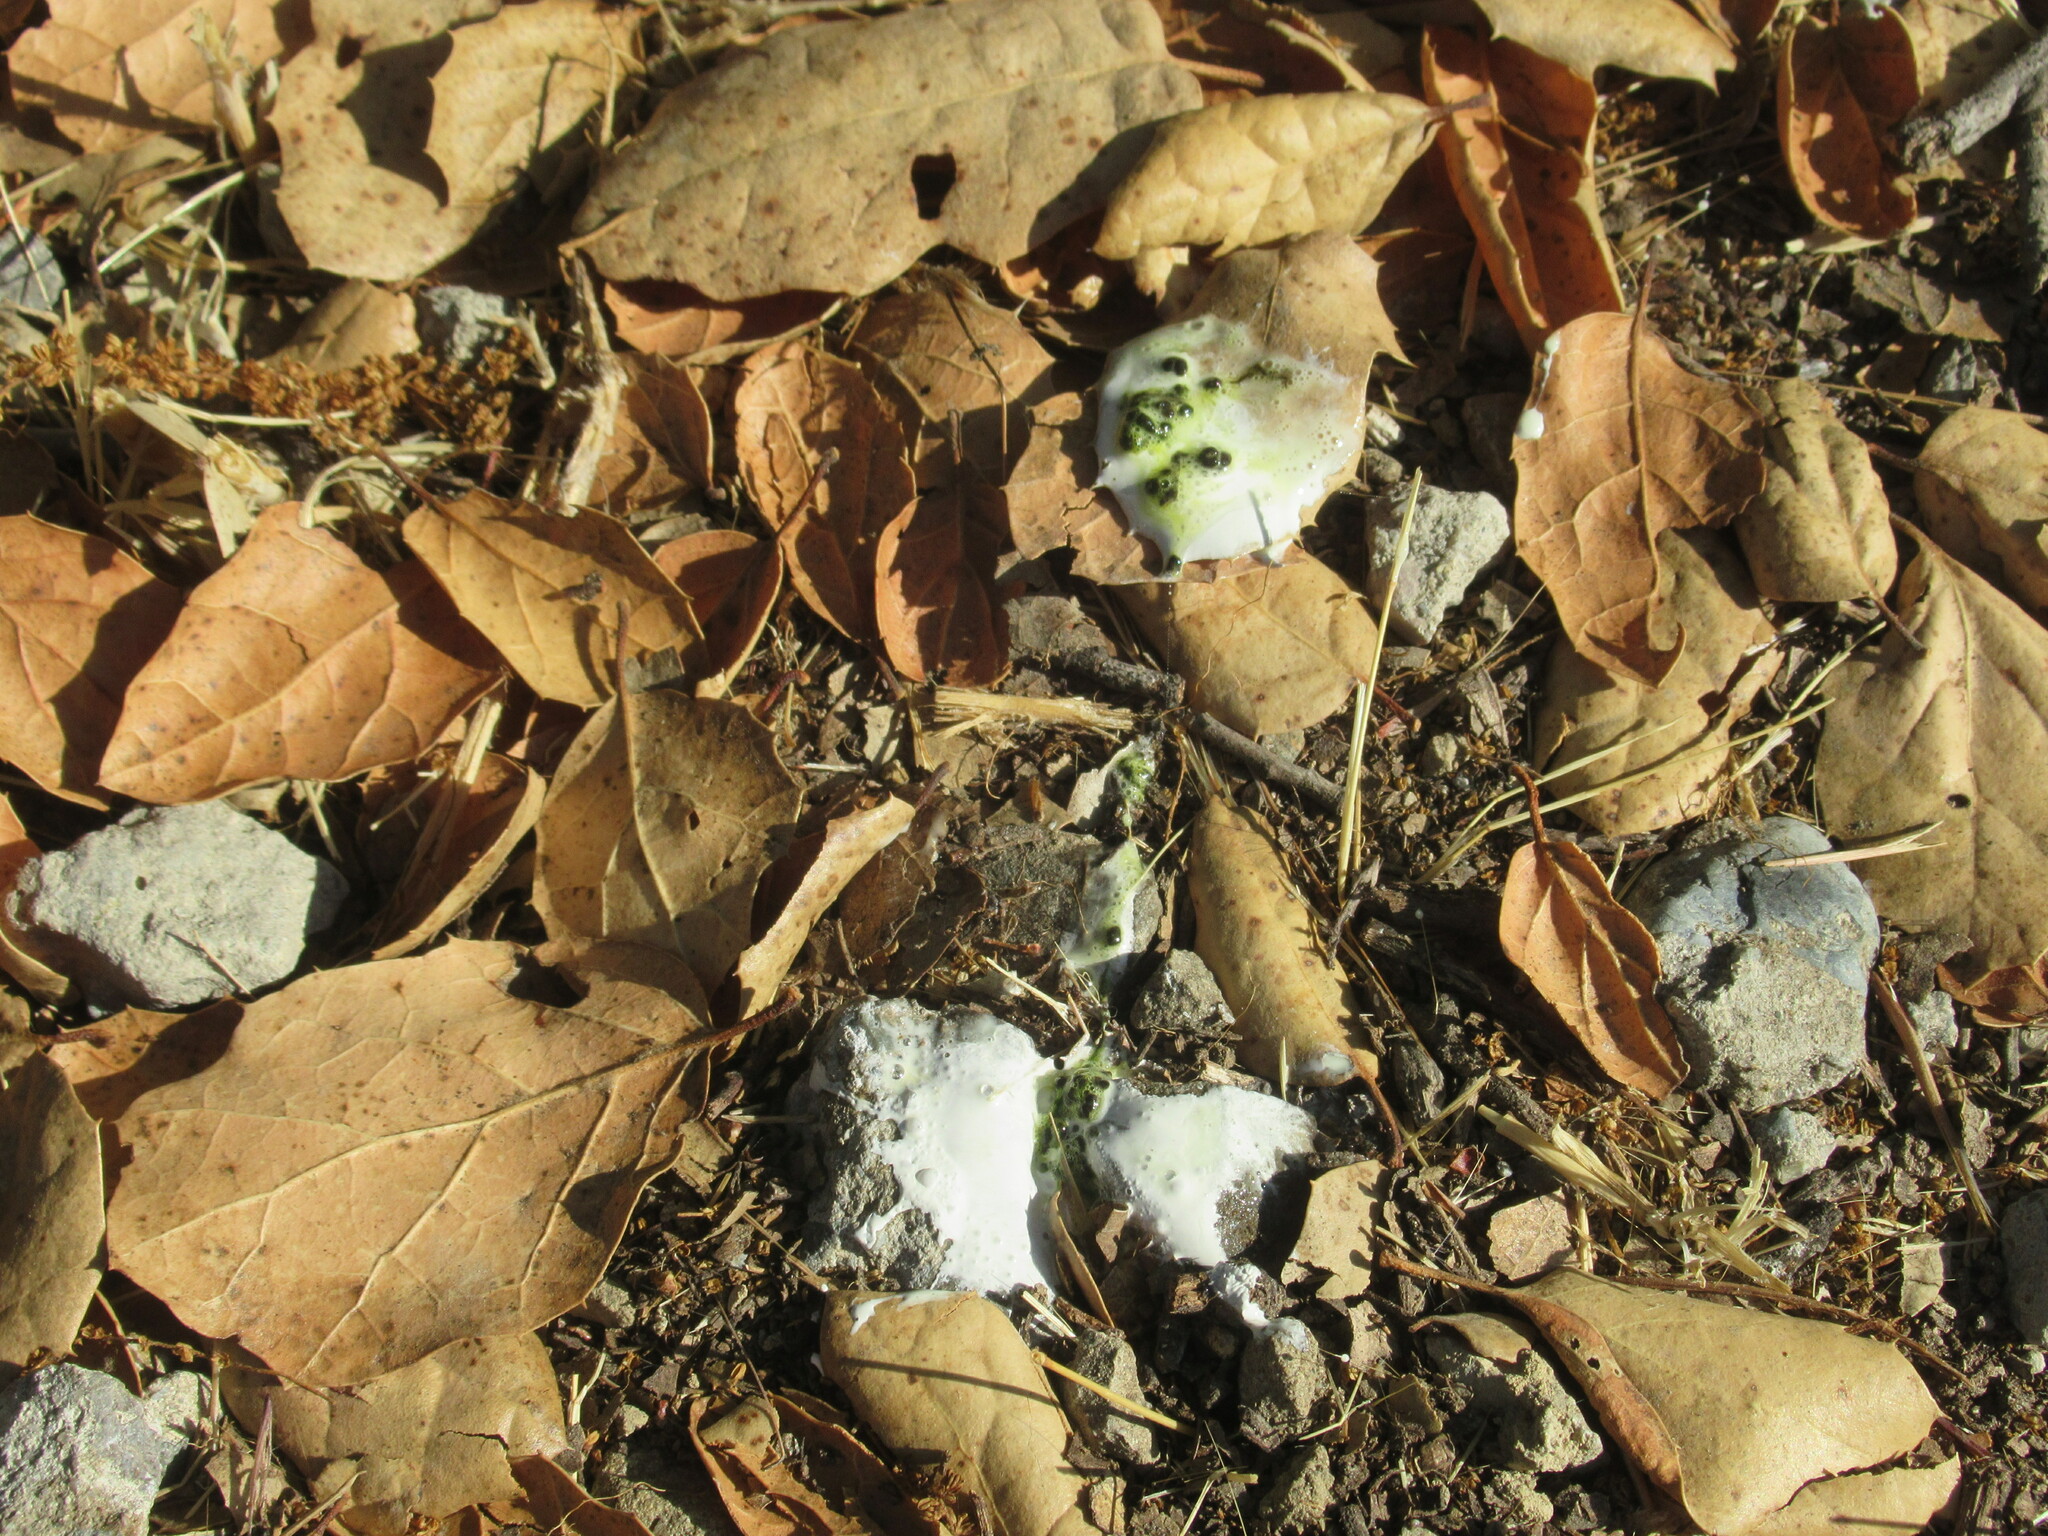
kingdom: Animalia
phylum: Chordata
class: Aves
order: Accipitriformes
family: Accipitridae
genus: Accipiter
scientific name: Accipiter cooperii
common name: Cooper's hawk
